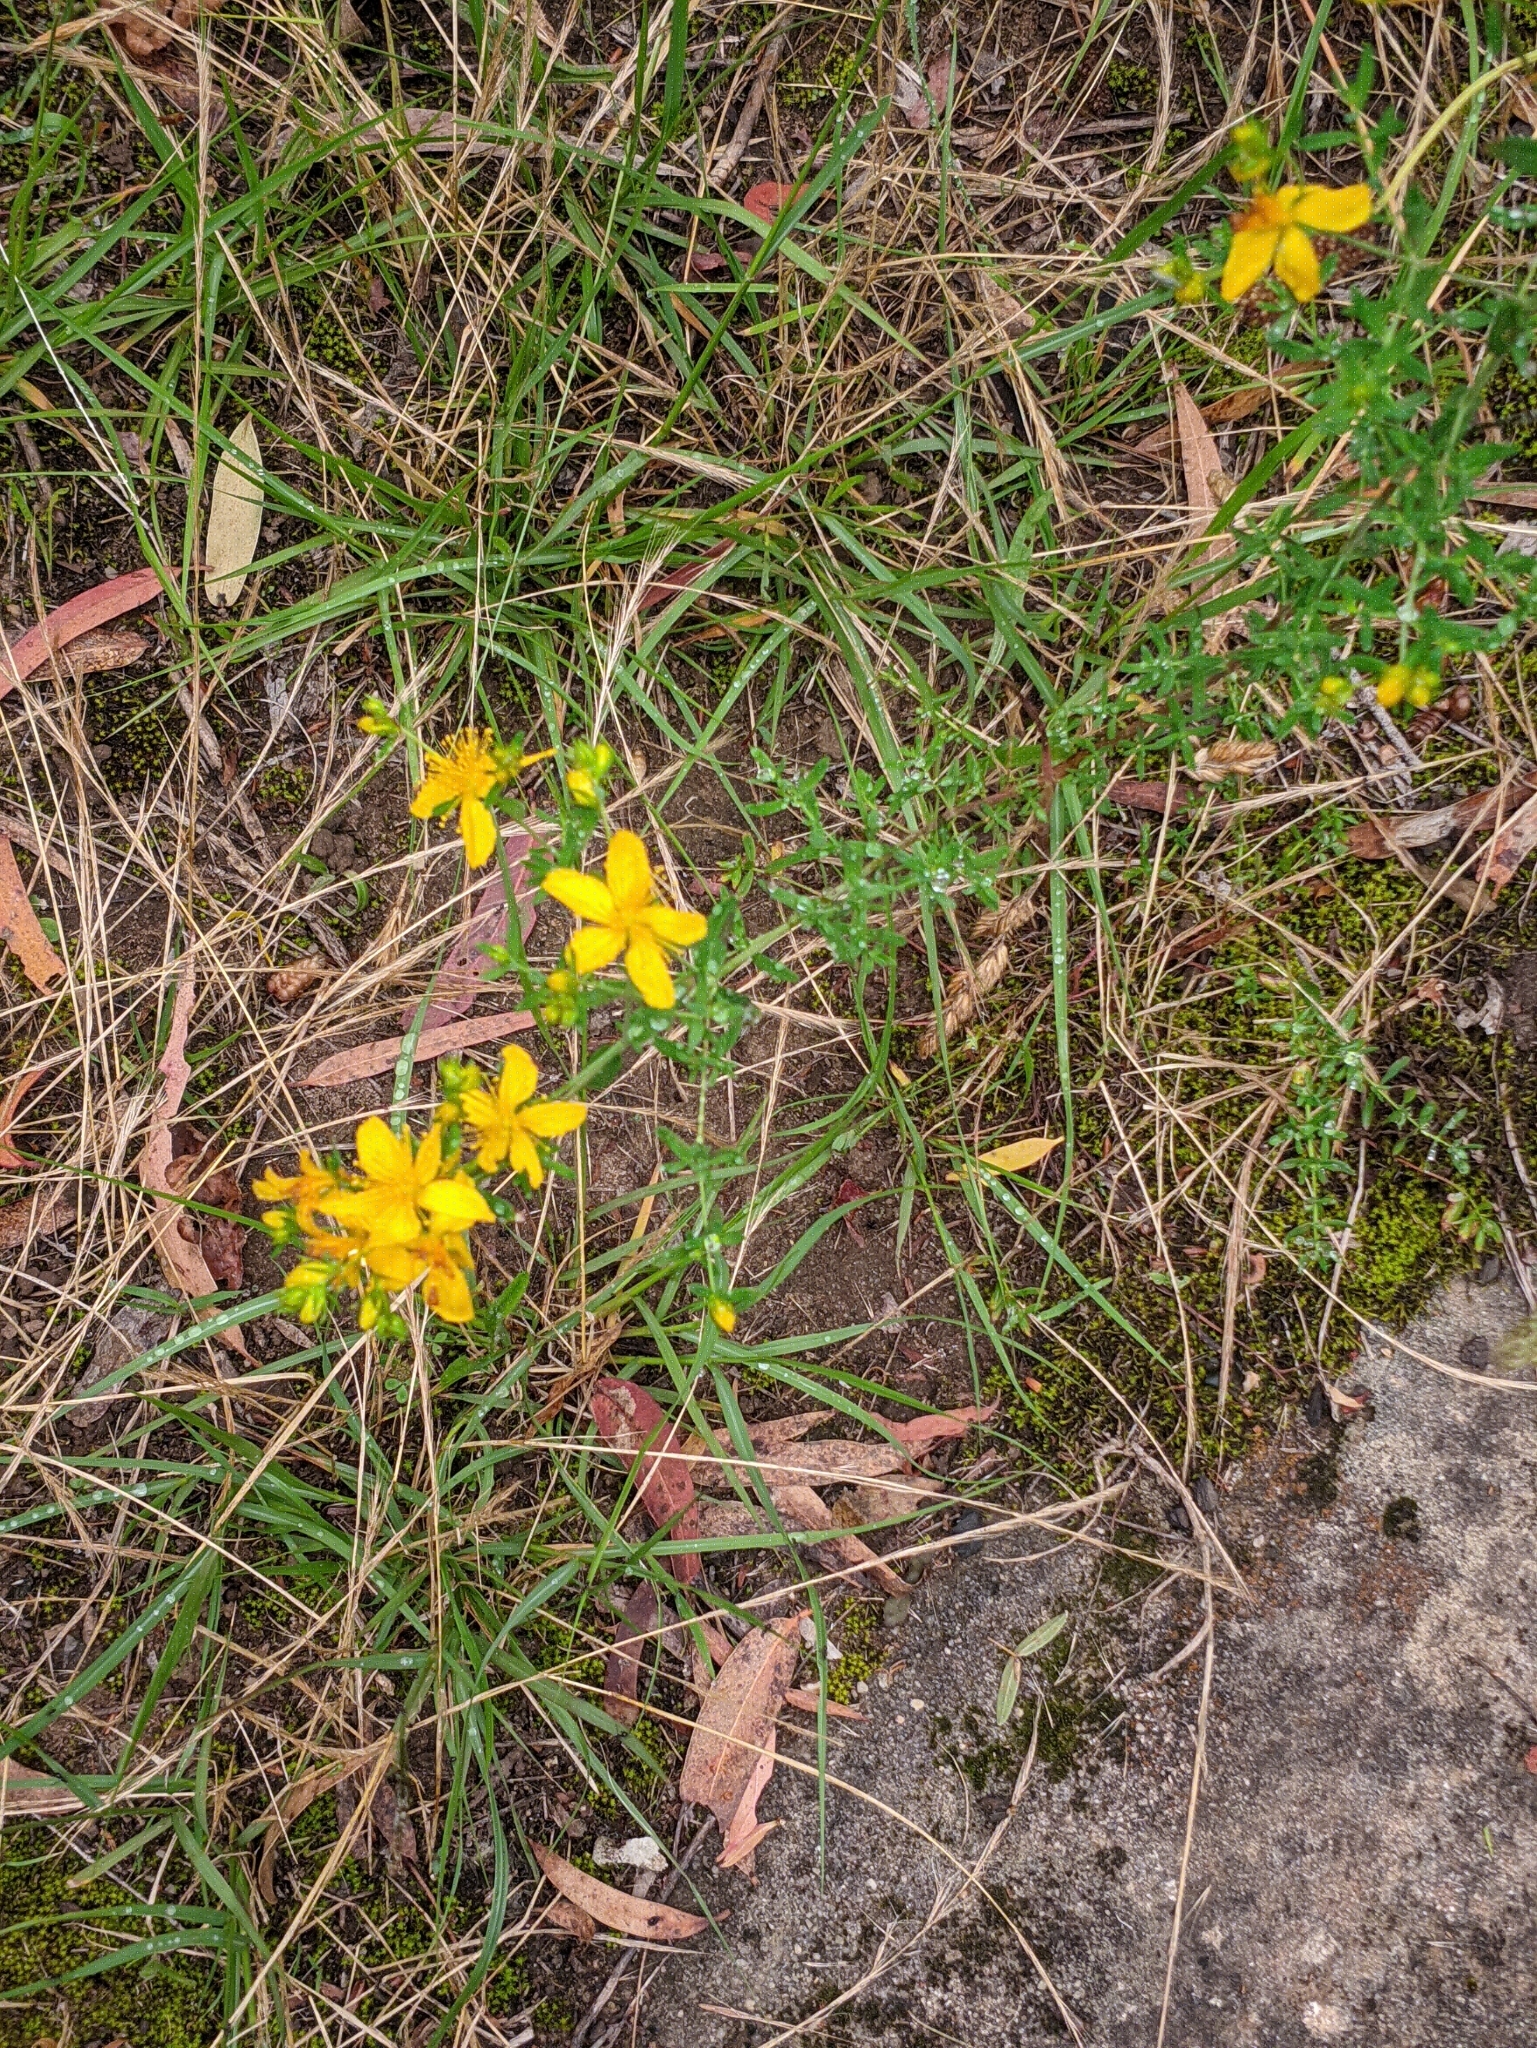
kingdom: Plantae
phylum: Tracheophyta
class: Magnoliopsida
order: Malpighiales
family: Hypericaceae
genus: Hypericum
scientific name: Hypericum perforatum
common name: Common st. johnswort
